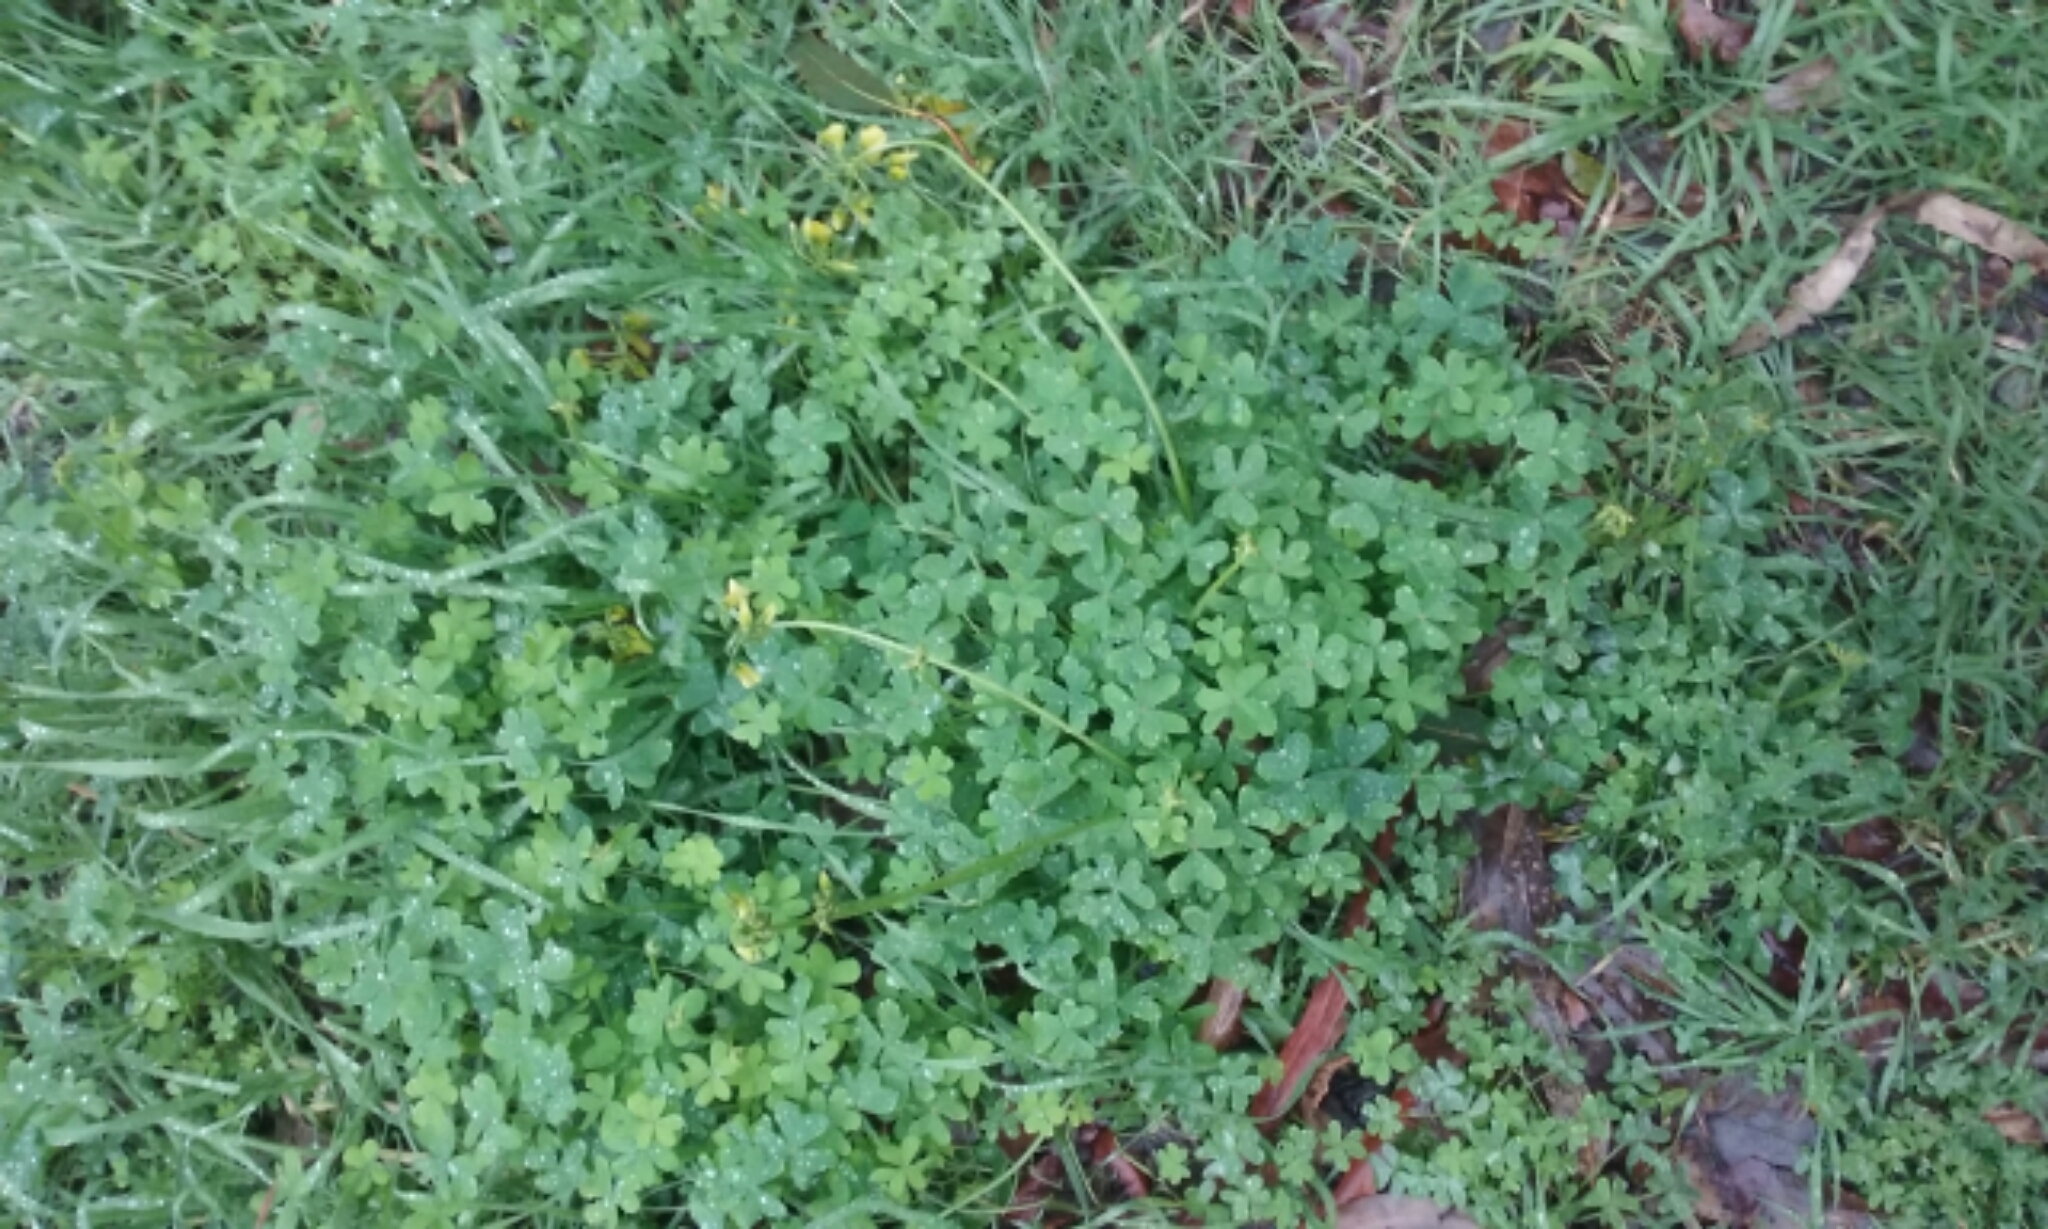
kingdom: Plantae
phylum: Tracheophyta
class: Magnoliopsida
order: Oxalidales
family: Oxalidaceae
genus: Oxalis
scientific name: Oxalis pes-caprae
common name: Bermuda-buttercup
